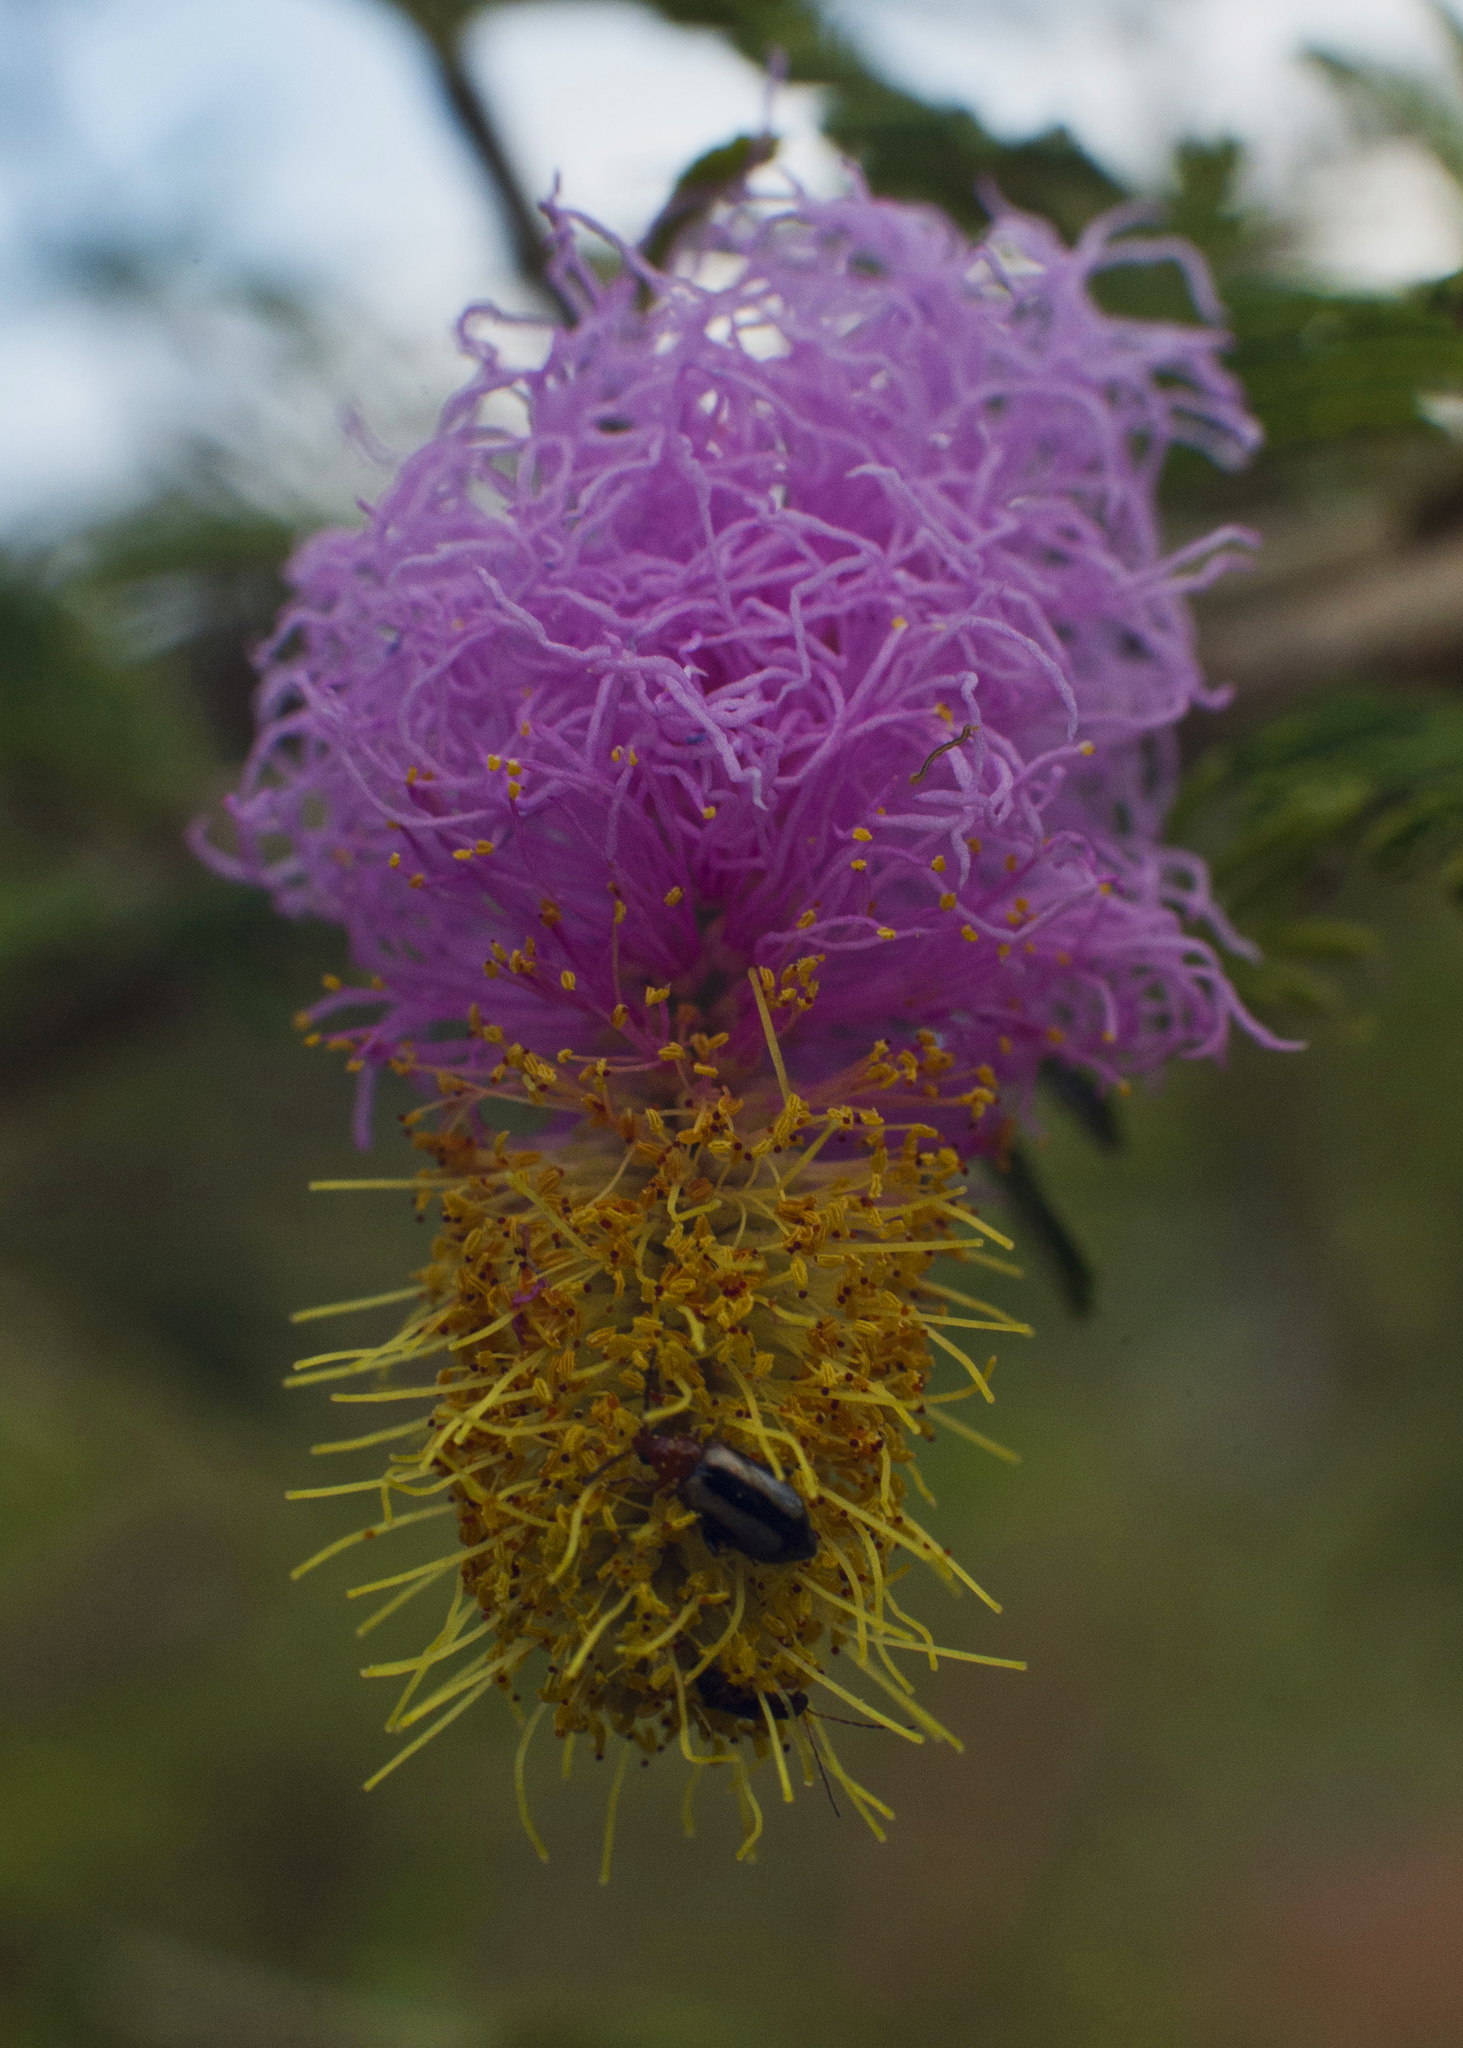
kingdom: Plantae
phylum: Tracheophyta
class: Magnoliopsida
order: Fabales
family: Fabaceae
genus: Dichrostachys
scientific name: Dichrostachys cinerea
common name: Sicklebush
